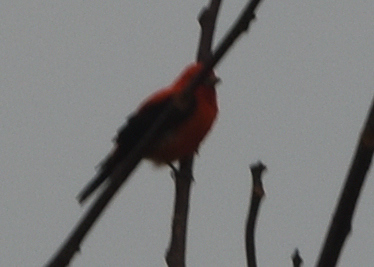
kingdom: Animalia
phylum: Chordata
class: Aves
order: Passeriformes
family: Cardinalidae
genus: Piranga
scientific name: Piranga olivacea
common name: Scarlet tanager
